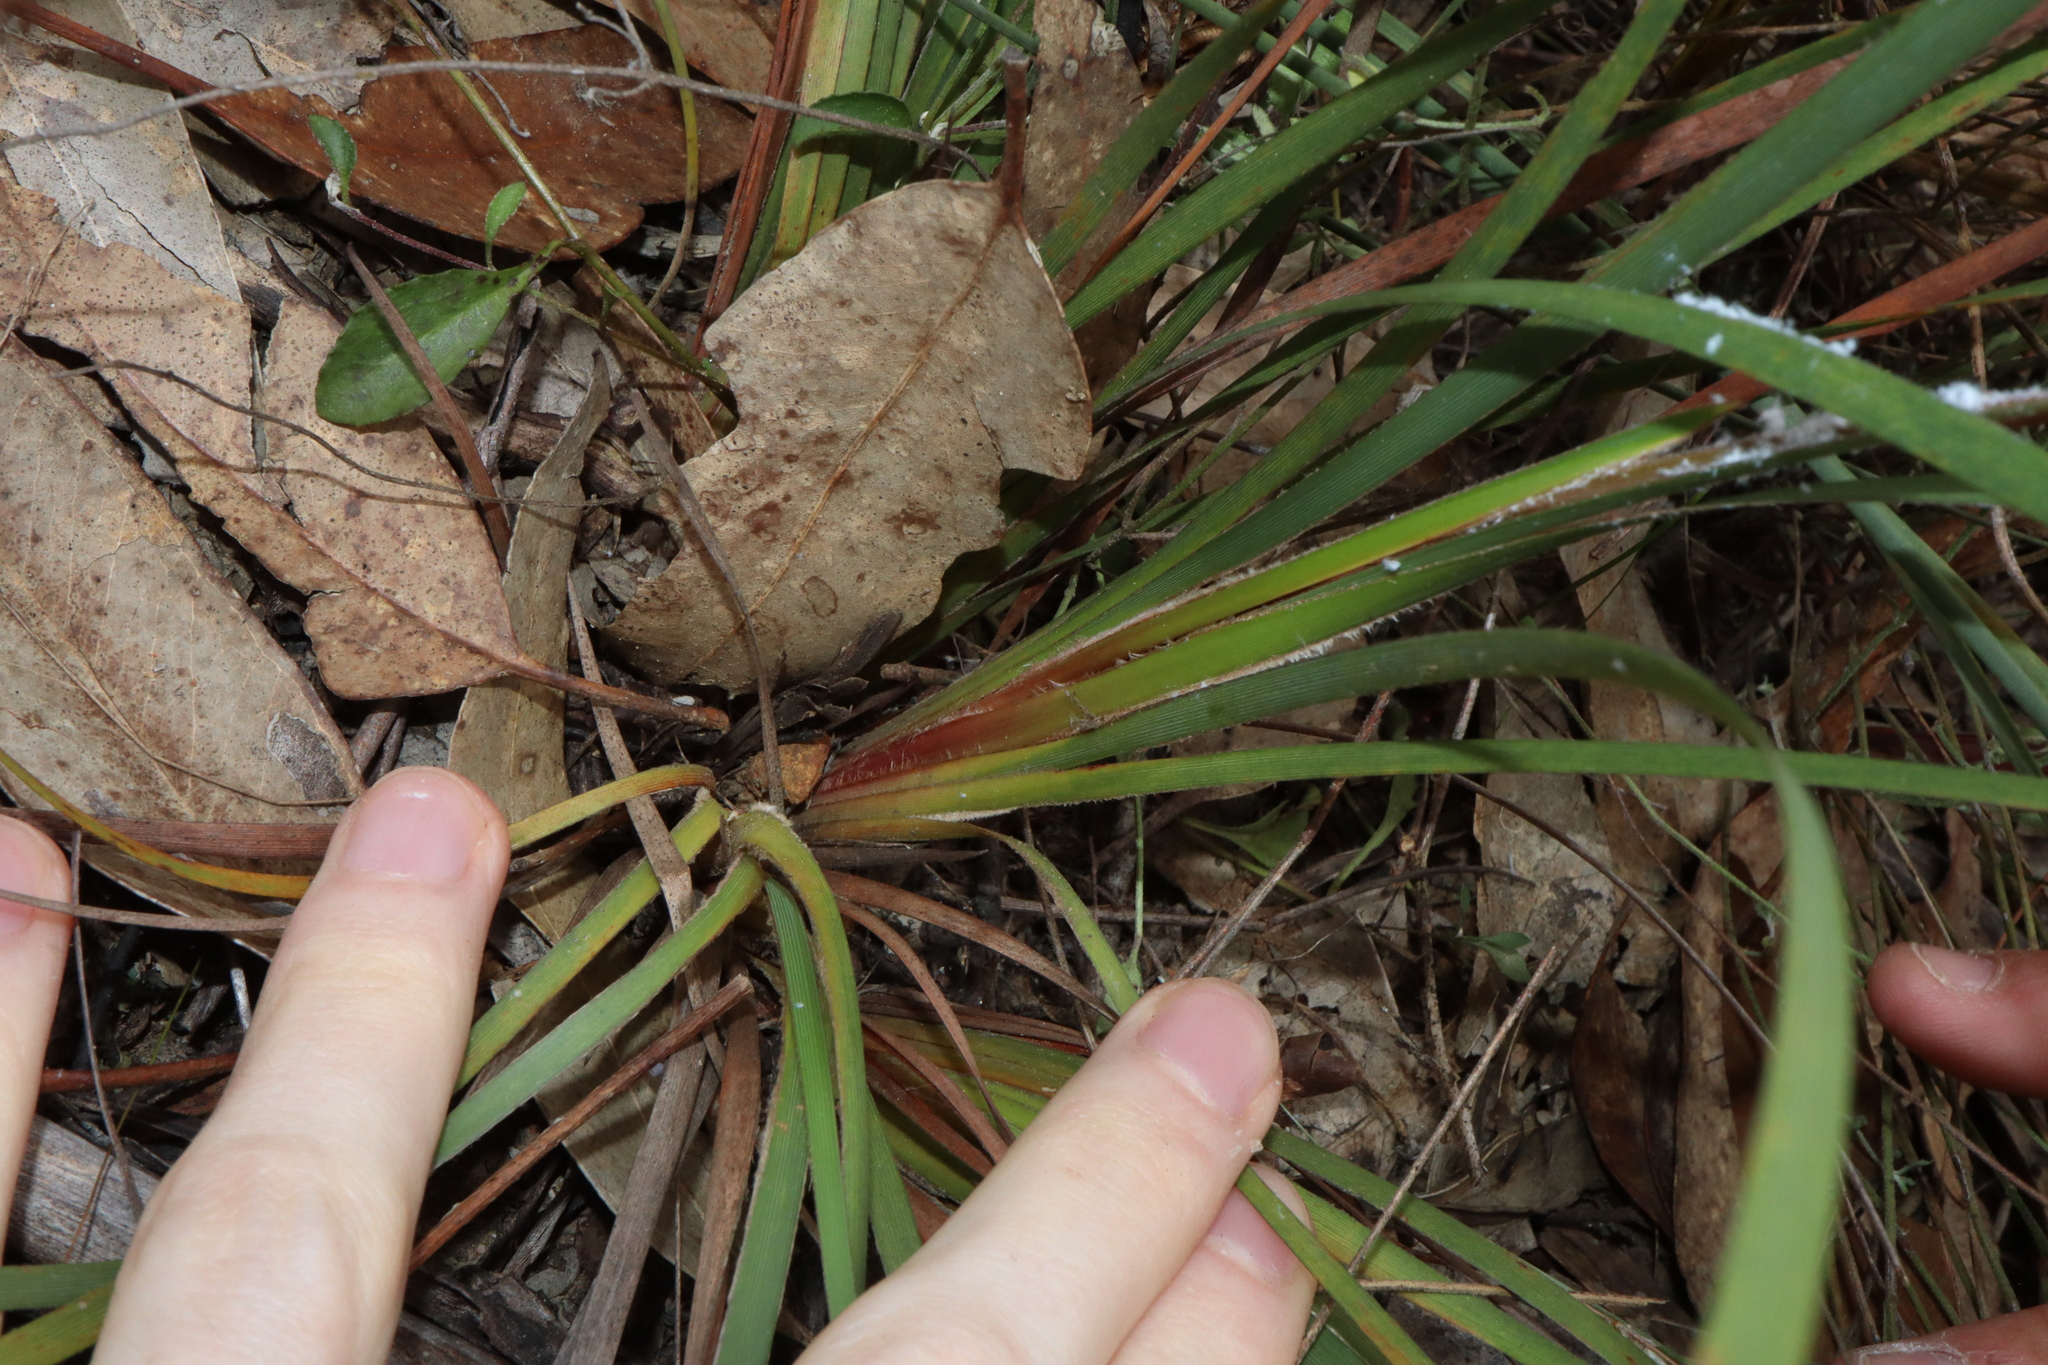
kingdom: Plantae
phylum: Tracheophyta
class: Liliopsida
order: Asparagales
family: Iridaceae
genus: Patersonia
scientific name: Patersonia sericea
